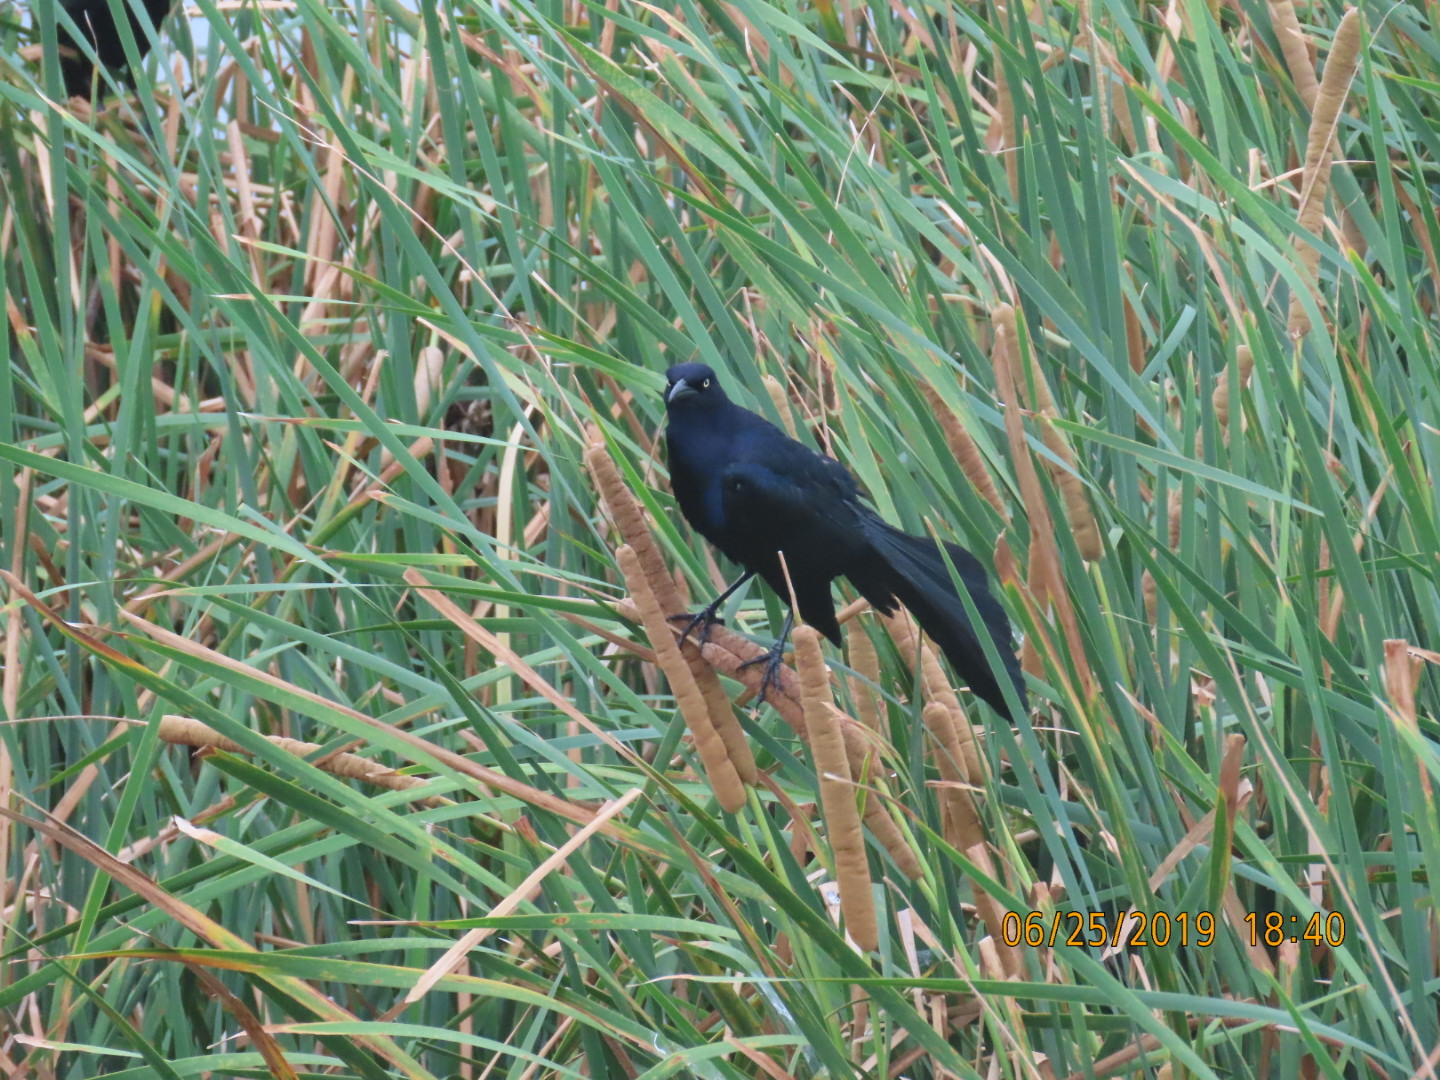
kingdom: Animalia
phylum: Chordata
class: Aves
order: Passeriformes
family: Icteridae
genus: Quiscalus
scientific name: Quiscalus mexicanus
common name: Great-tailed grackle
